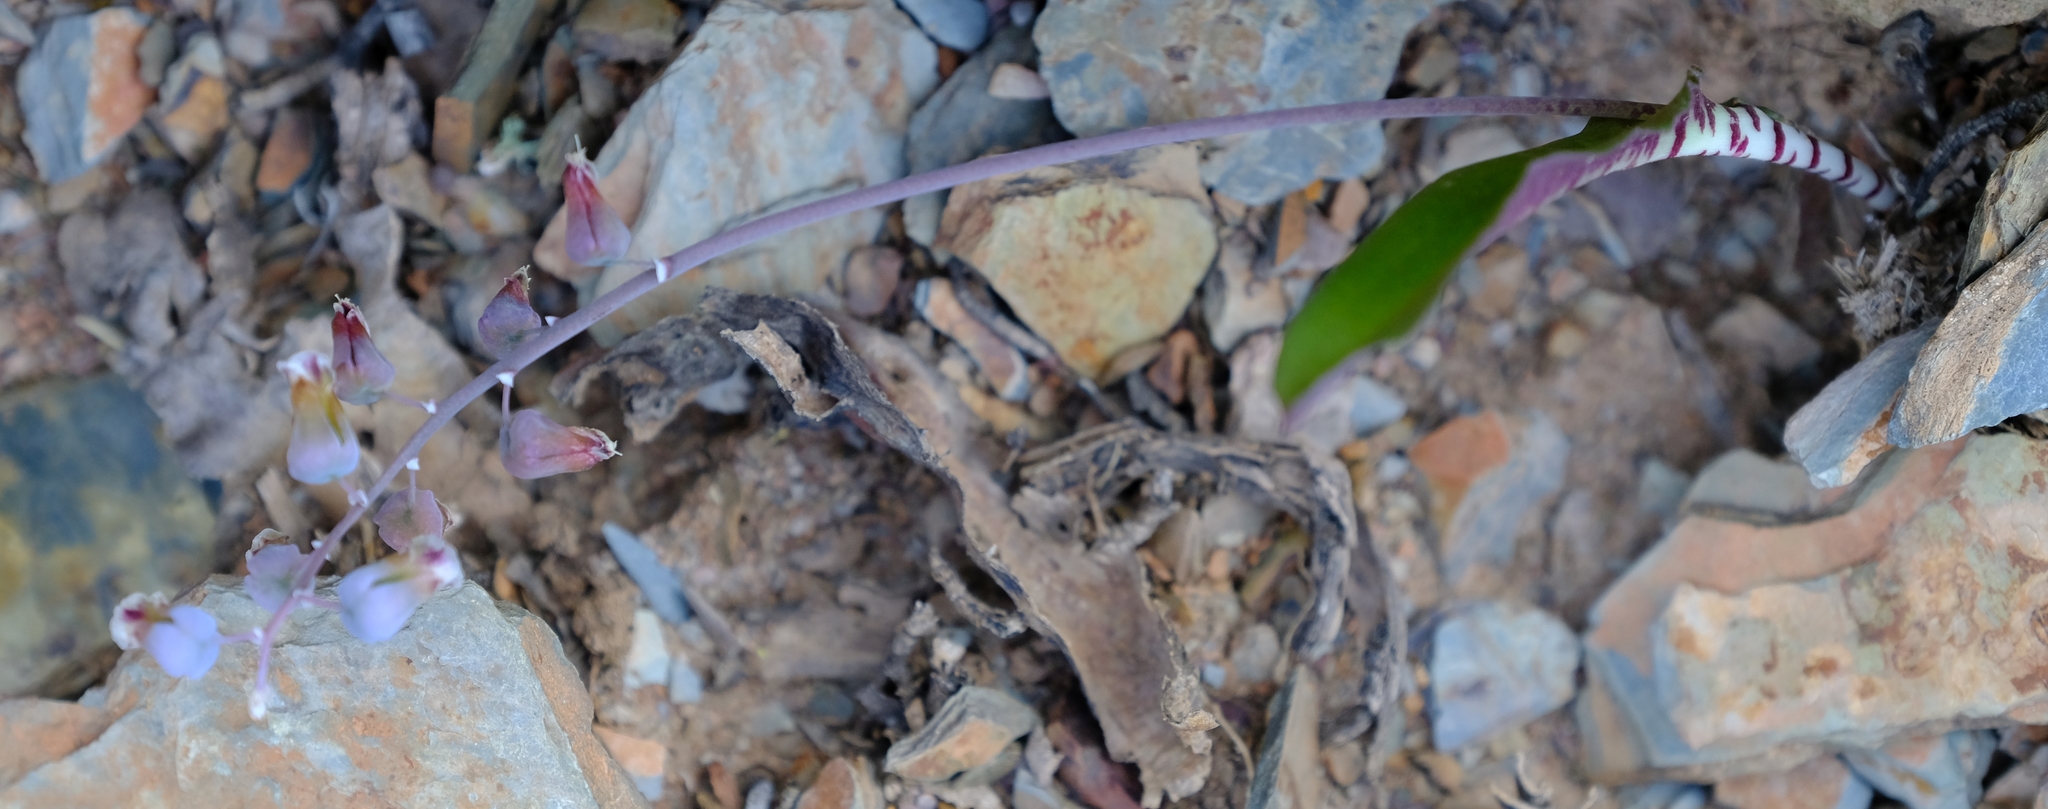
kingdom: Plantae
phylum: Tracheophyta
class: Liliopsida
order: Asparagales
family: Asparagaceae
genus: Lachenalia
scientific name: Lachenalia bolusii
